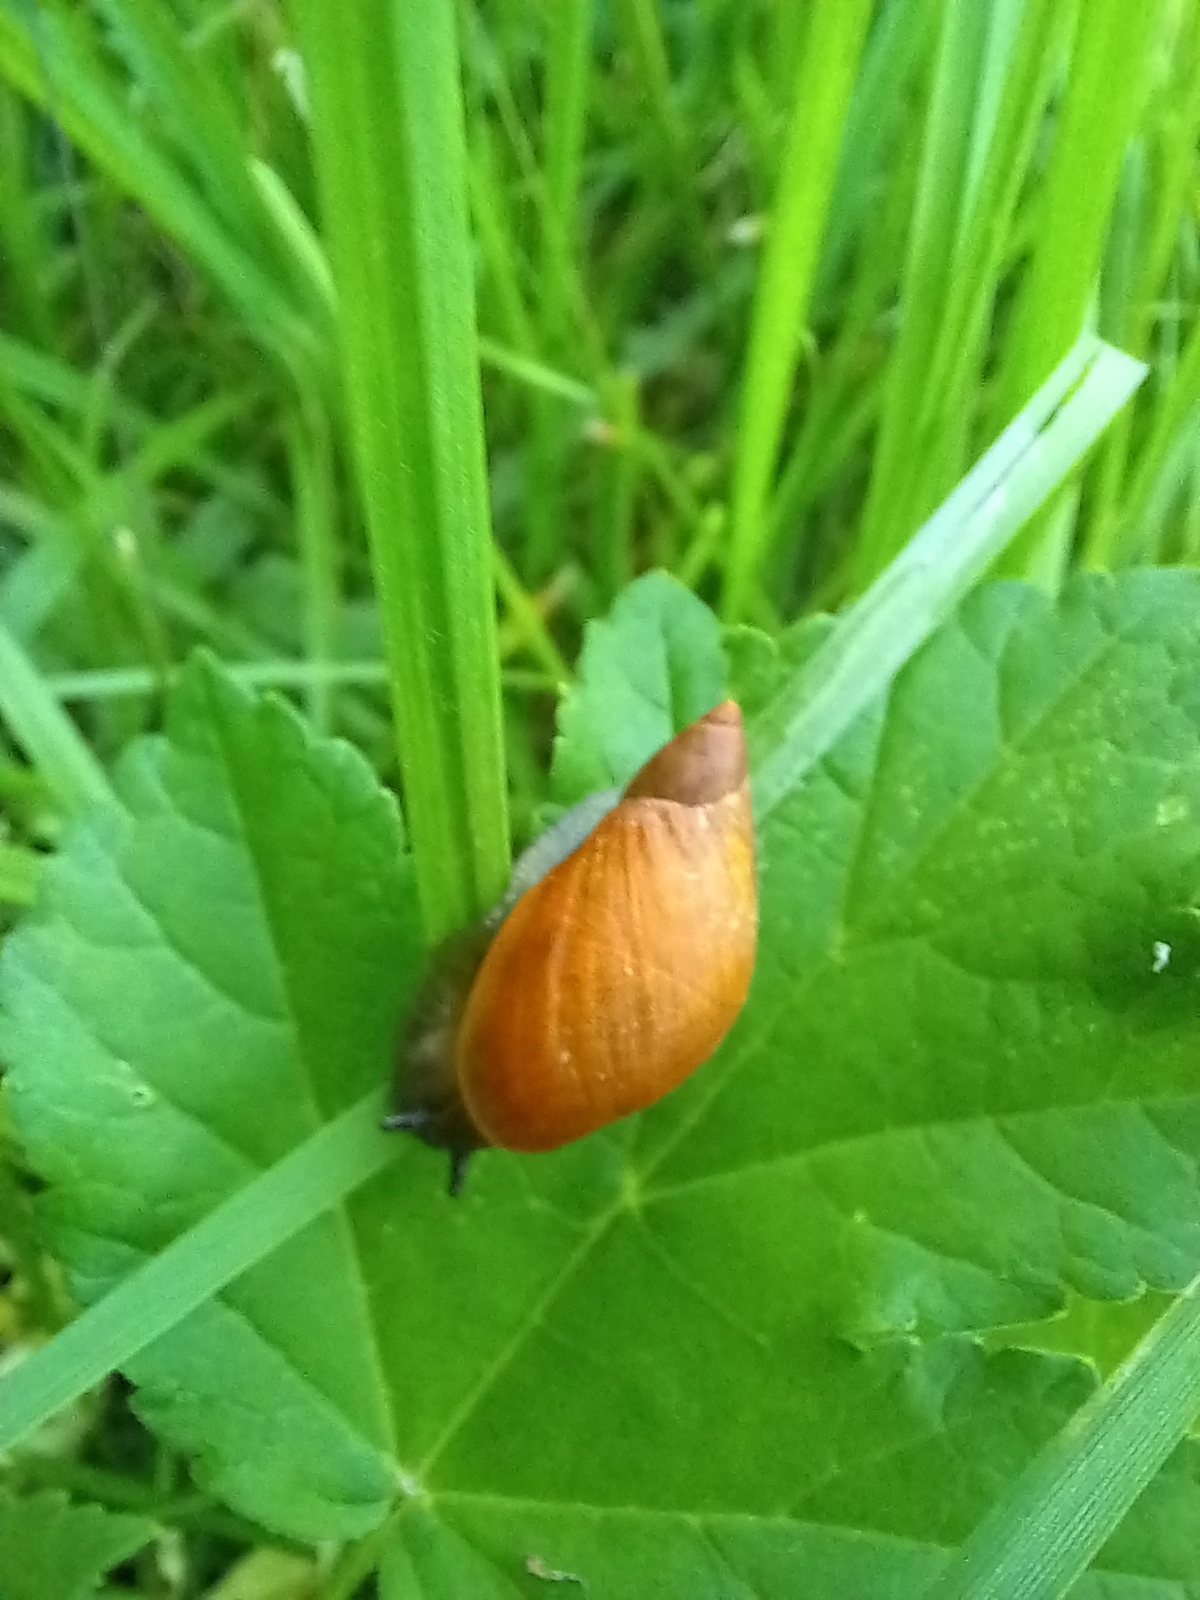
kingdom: Animalia
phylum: Mollusca
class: Gastropoda
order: Stylommatophora
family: Succineidae
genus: Succinea
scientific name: Succinea putris
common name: European ambersnail
